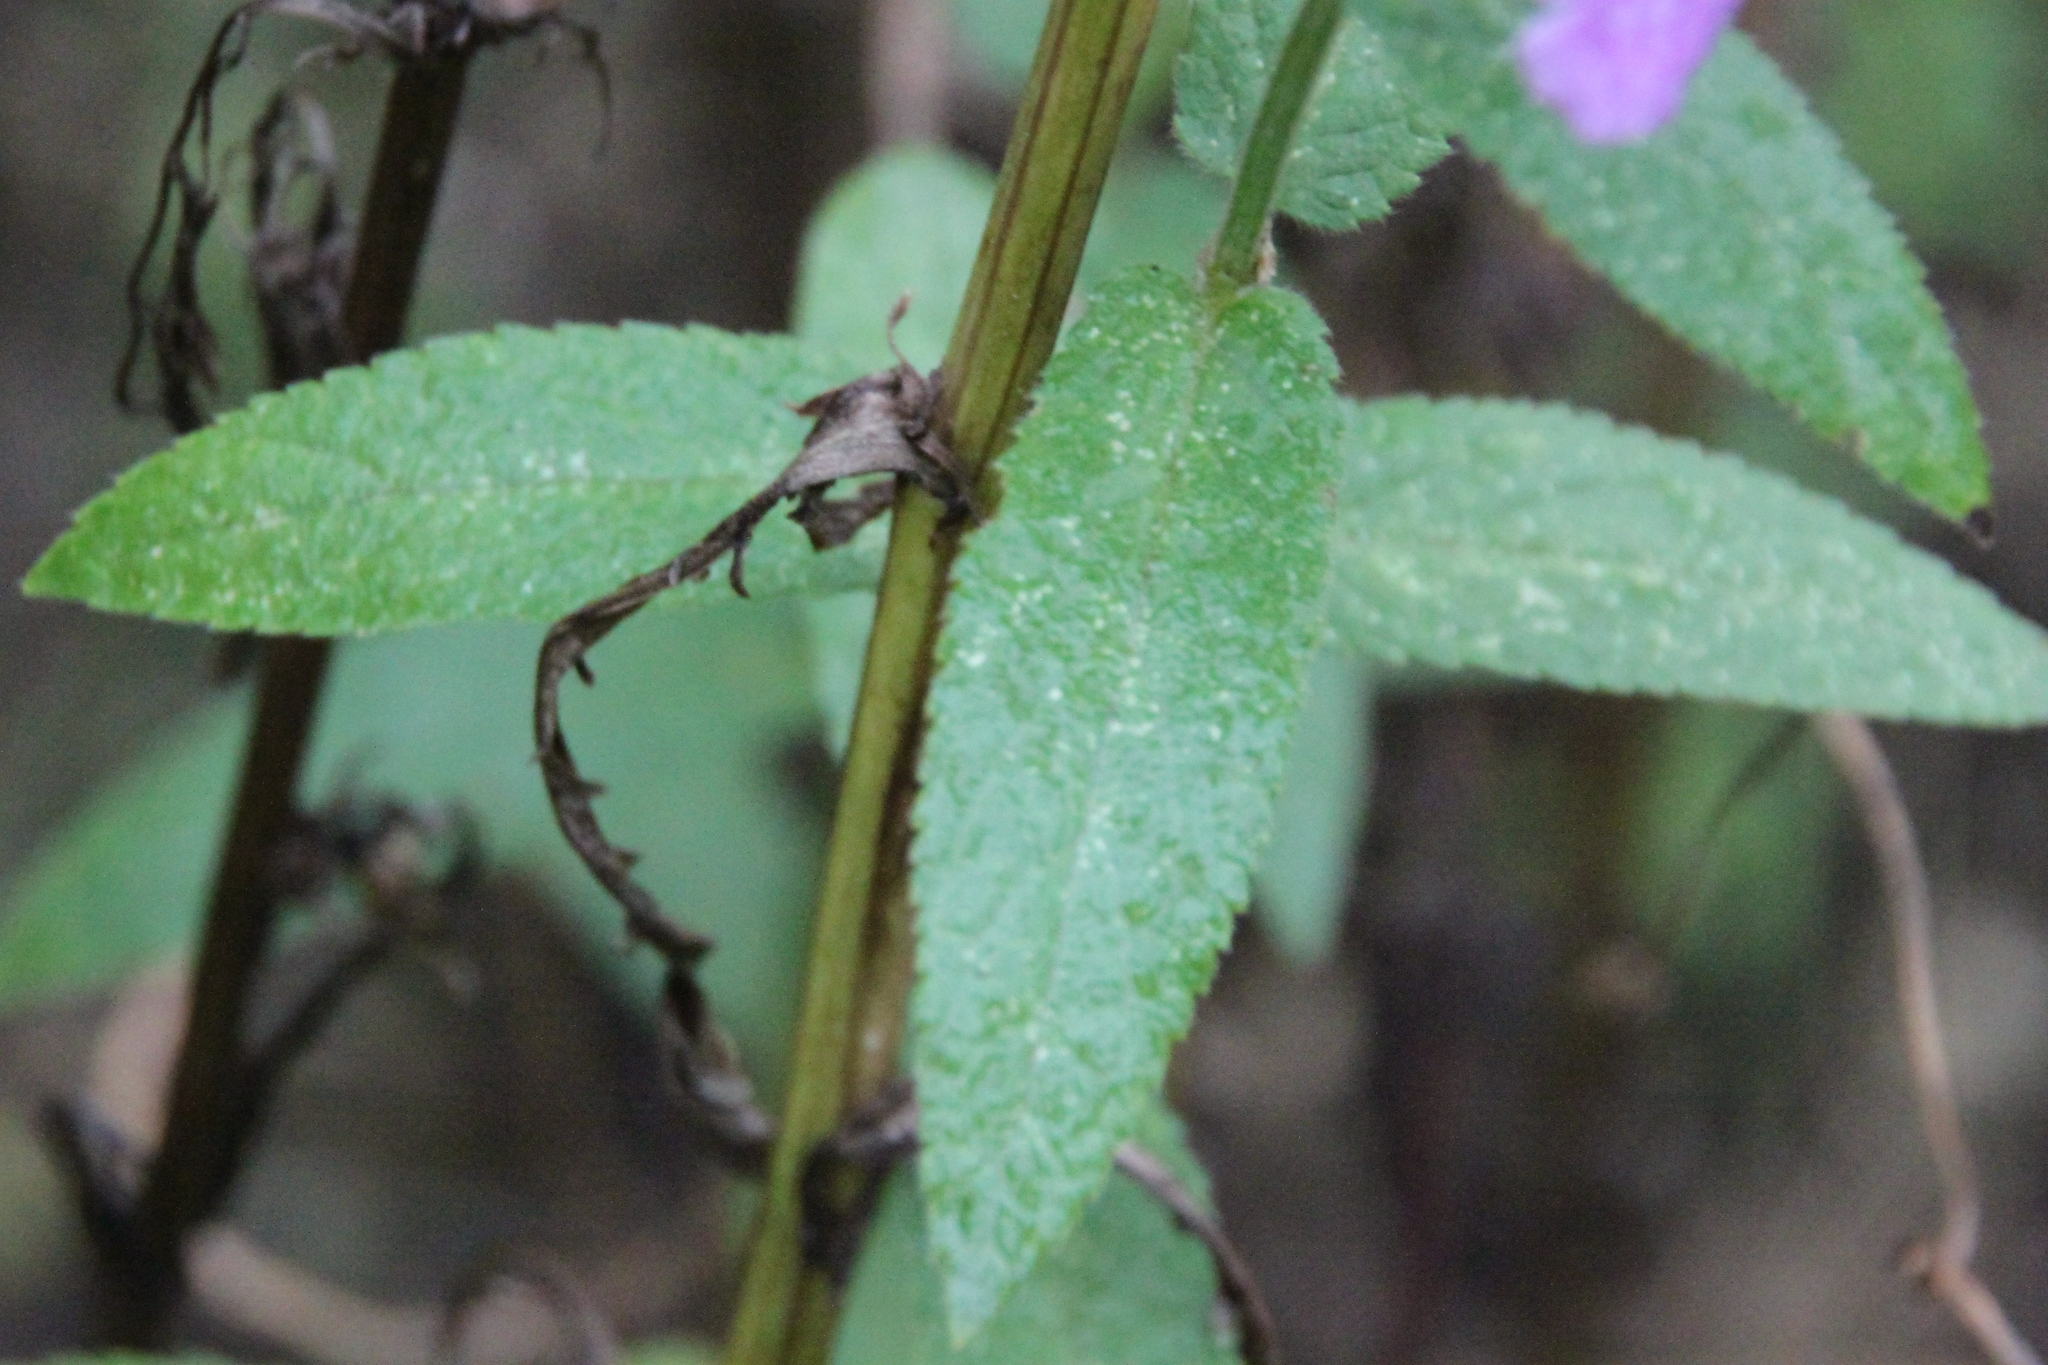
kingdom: Plantae
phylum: Tracheophyta
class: Magnoliopsida
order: Lamiales
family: Lamiaceae
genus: Stachys
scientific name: Stachys palustris
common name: Marsh woundwort
